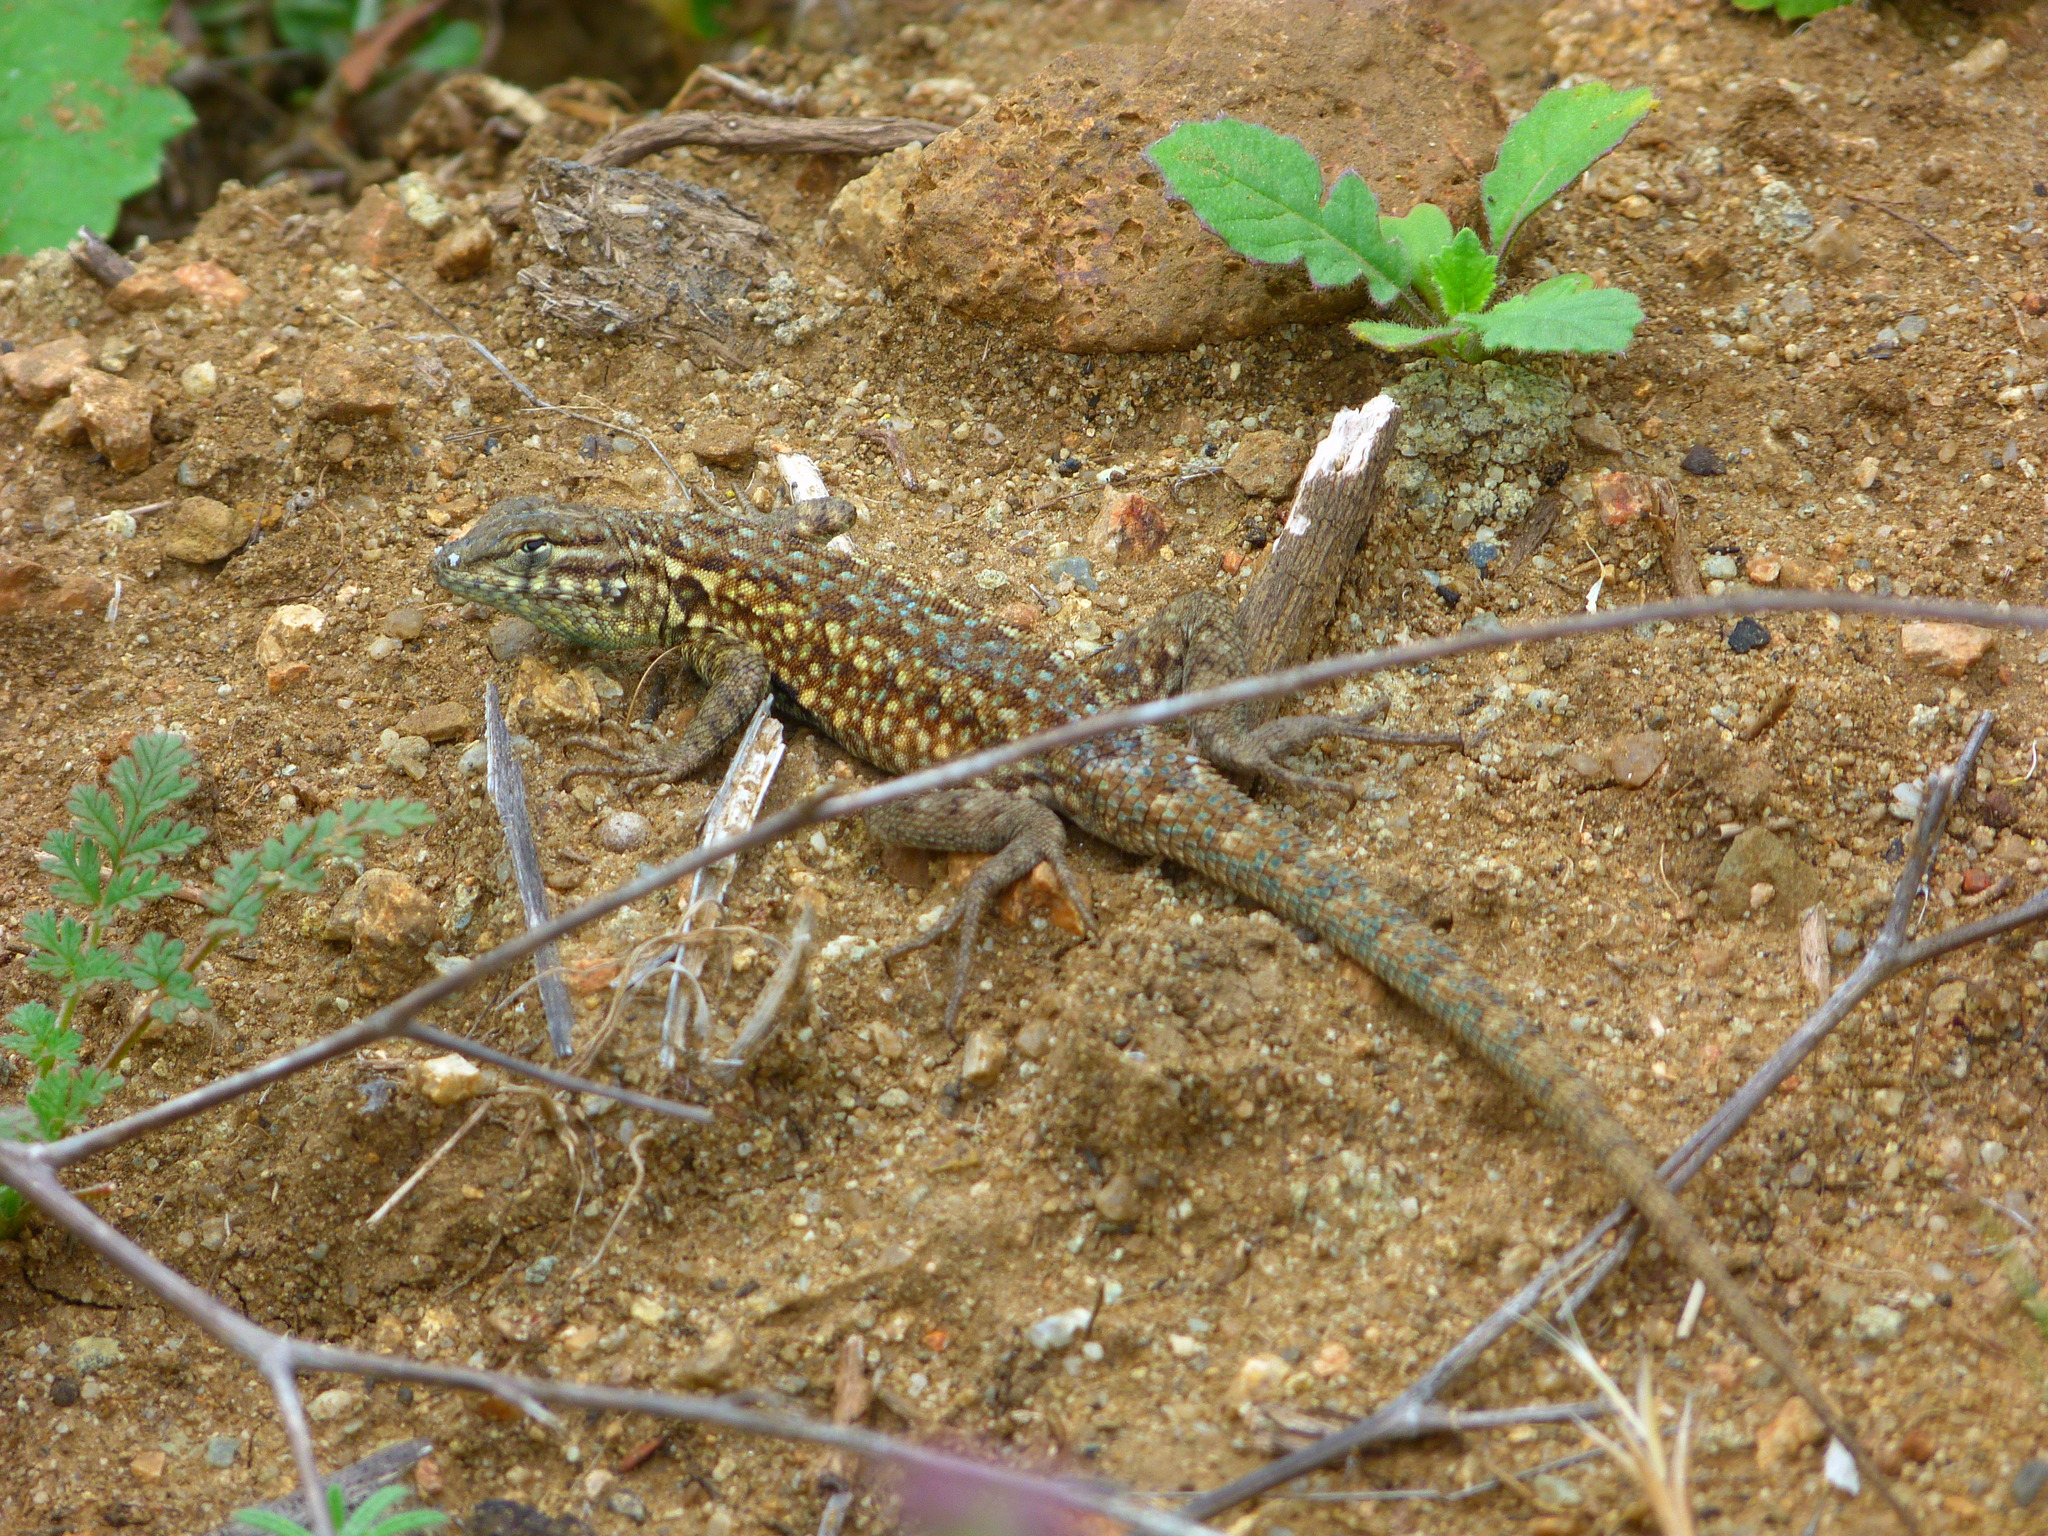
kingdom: Animalia
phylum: Chordata
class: Squamata
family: Phrynosomatidae
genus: Uta
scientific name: Uta stansburiana
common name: Side-blotched lizard
